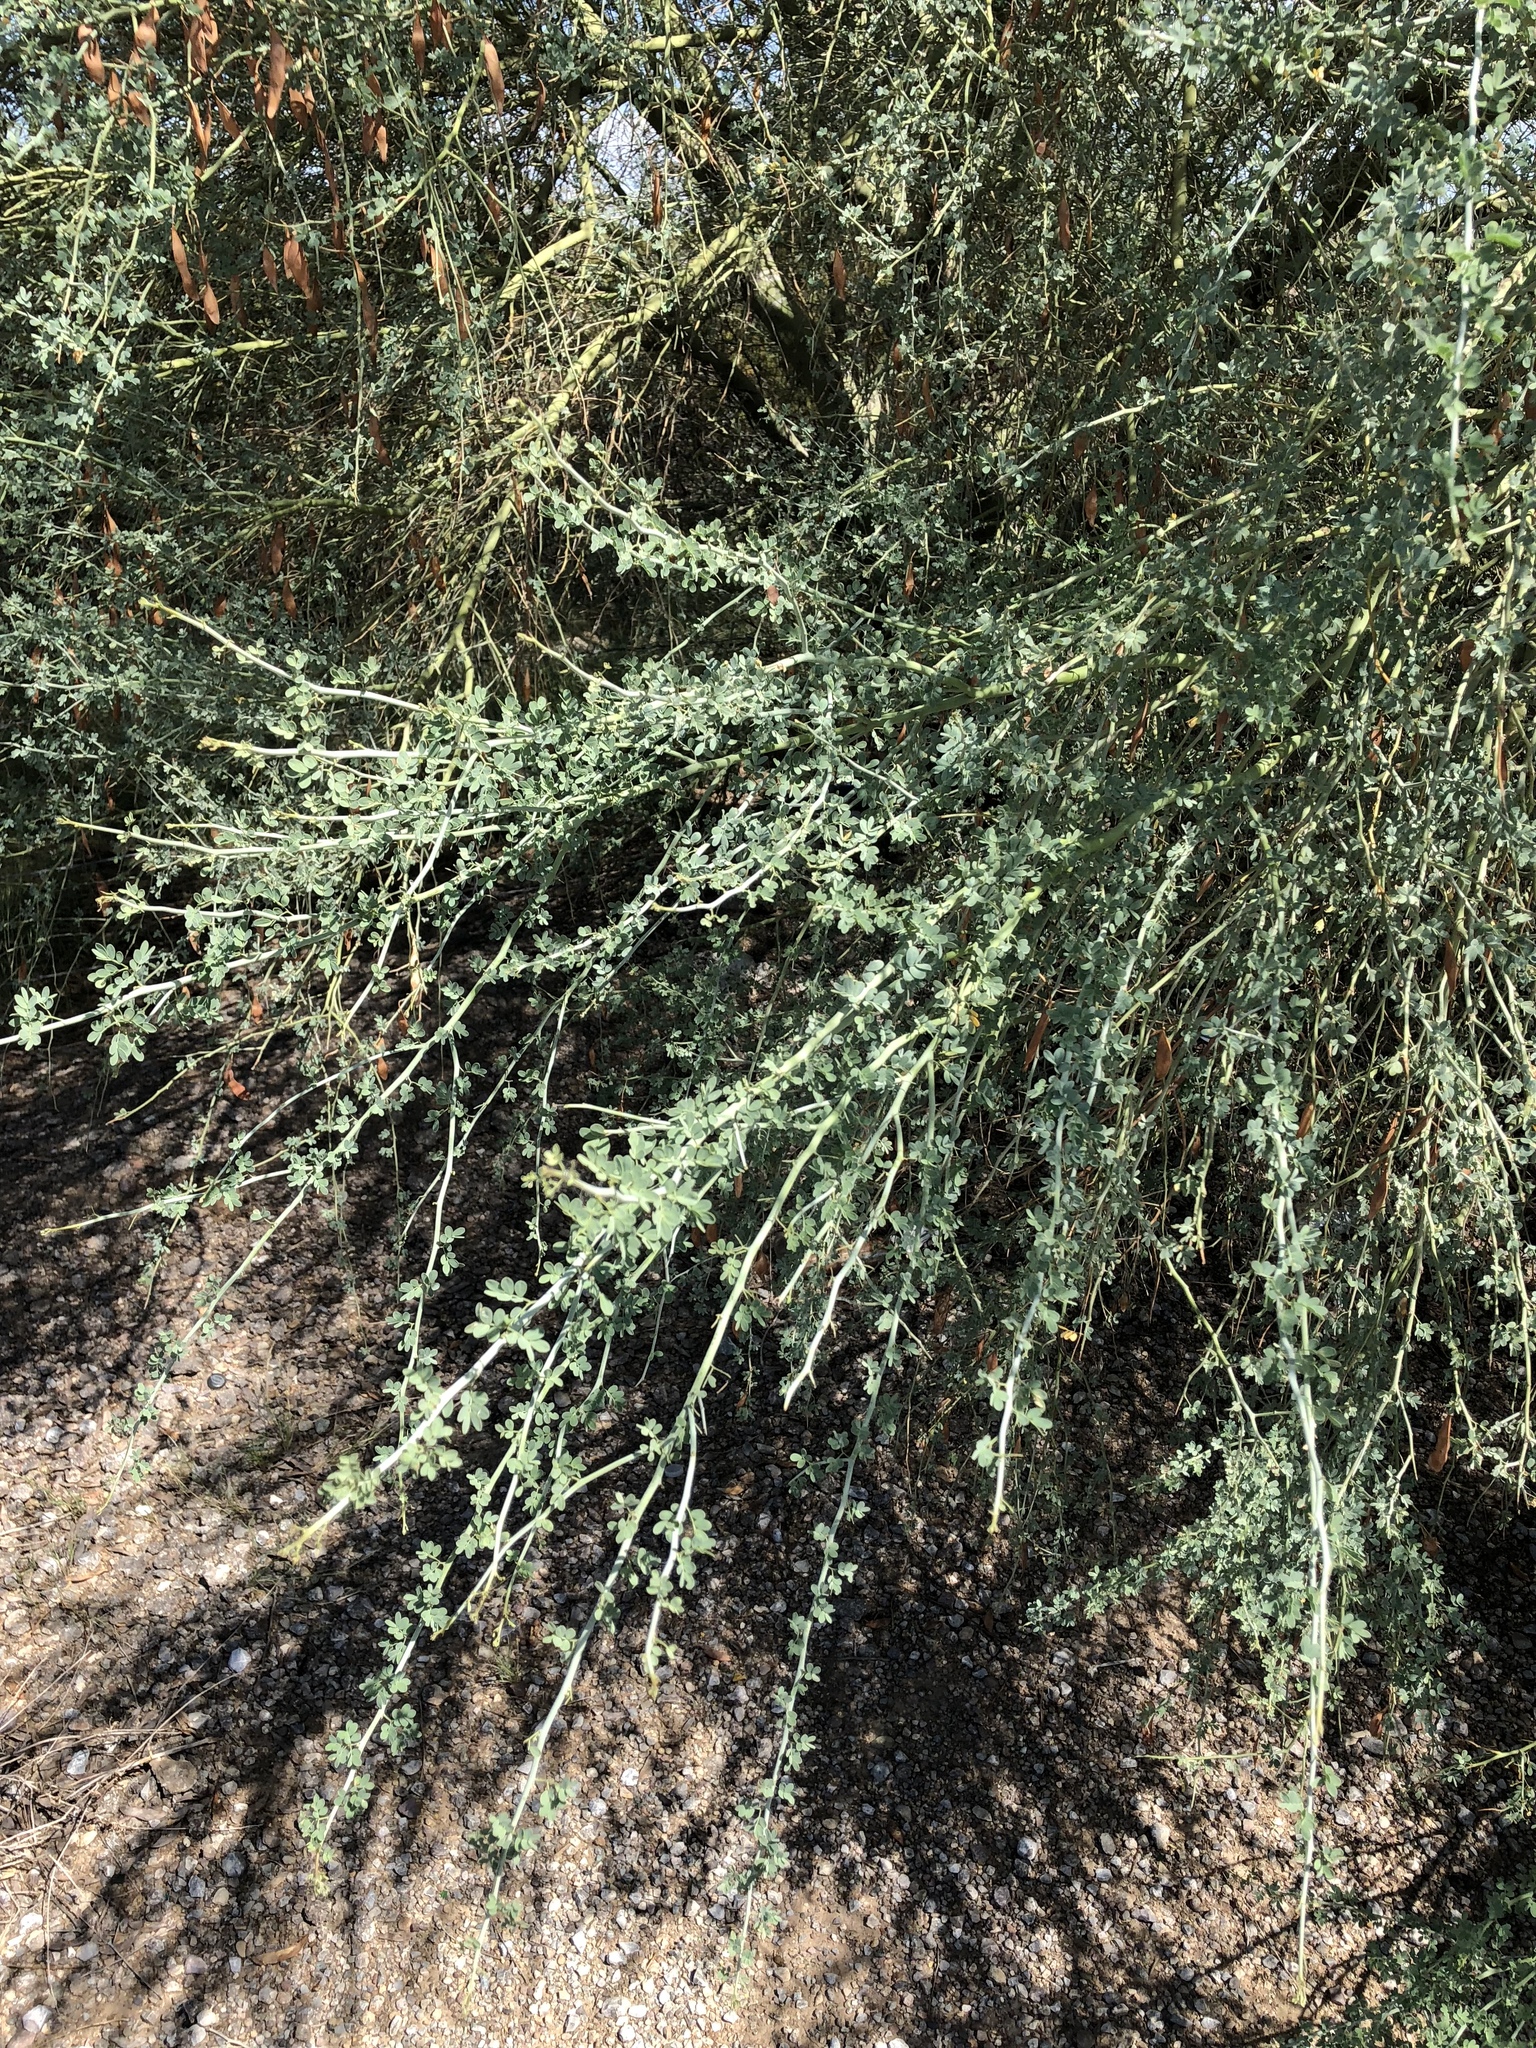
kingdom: Plantae
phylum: Tracheophyta
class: Magnoliopsida
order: Fabales
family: Fabaceae
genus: Parkinsonia
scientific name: Parkinsonia florida
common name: Blue paloverde
